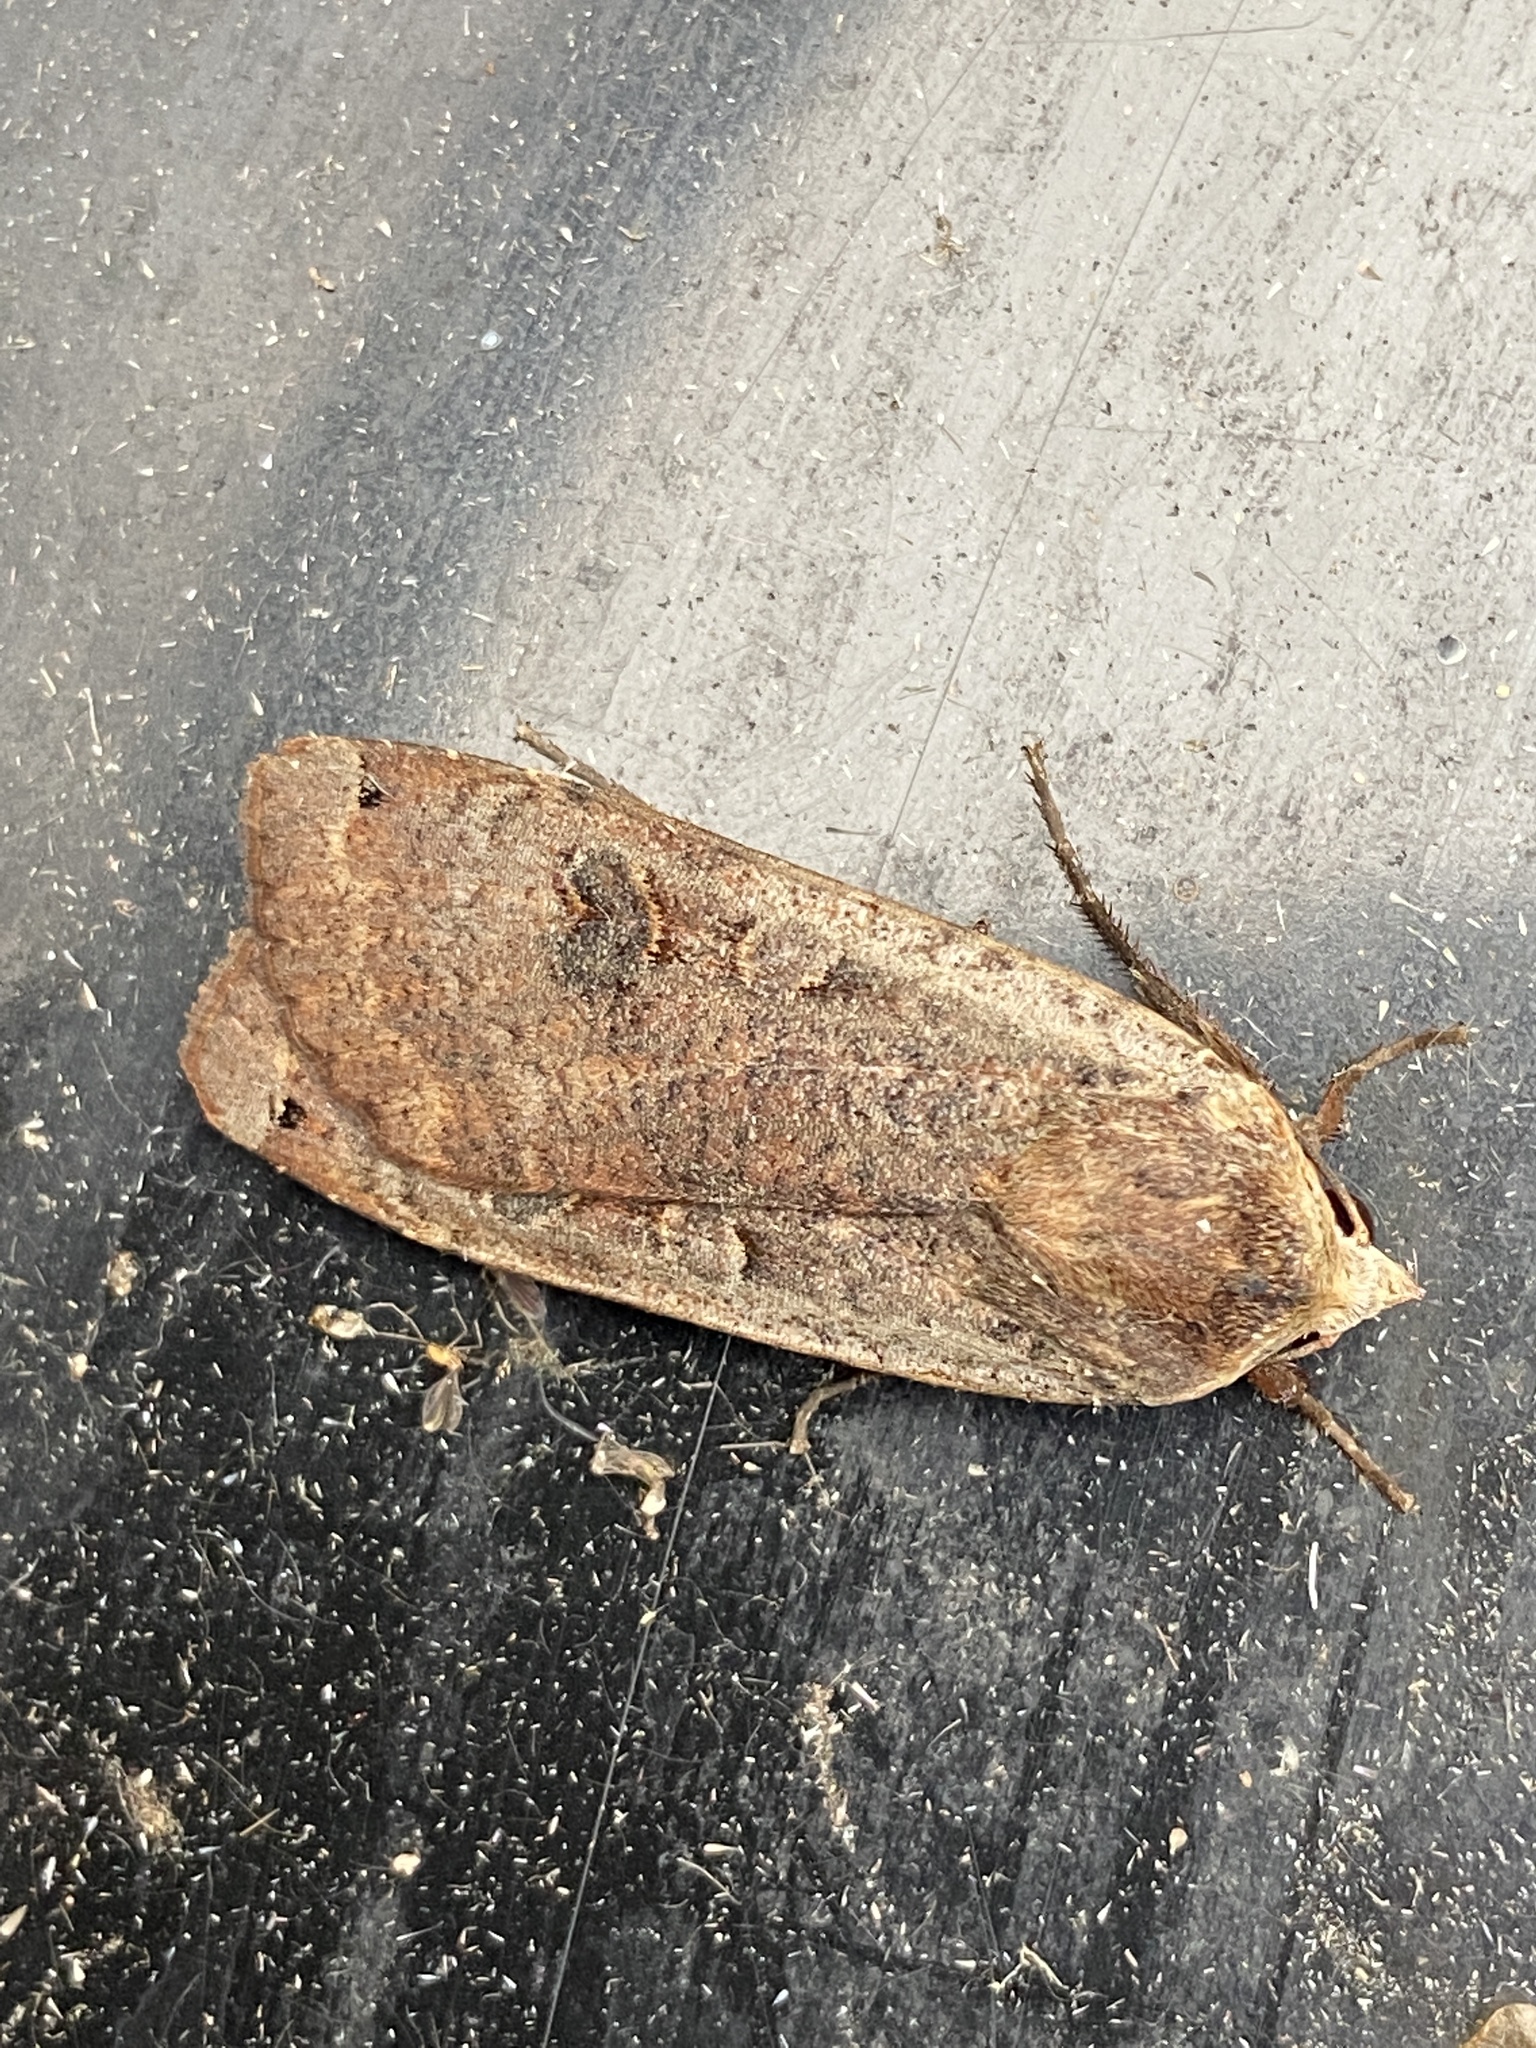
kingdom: Animalia
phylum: Arthropoda
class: Insecta
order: Lepidoptera
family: Noctuidae
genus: Noctua
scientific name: Noctua pronuba
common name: Large yellow underwing
